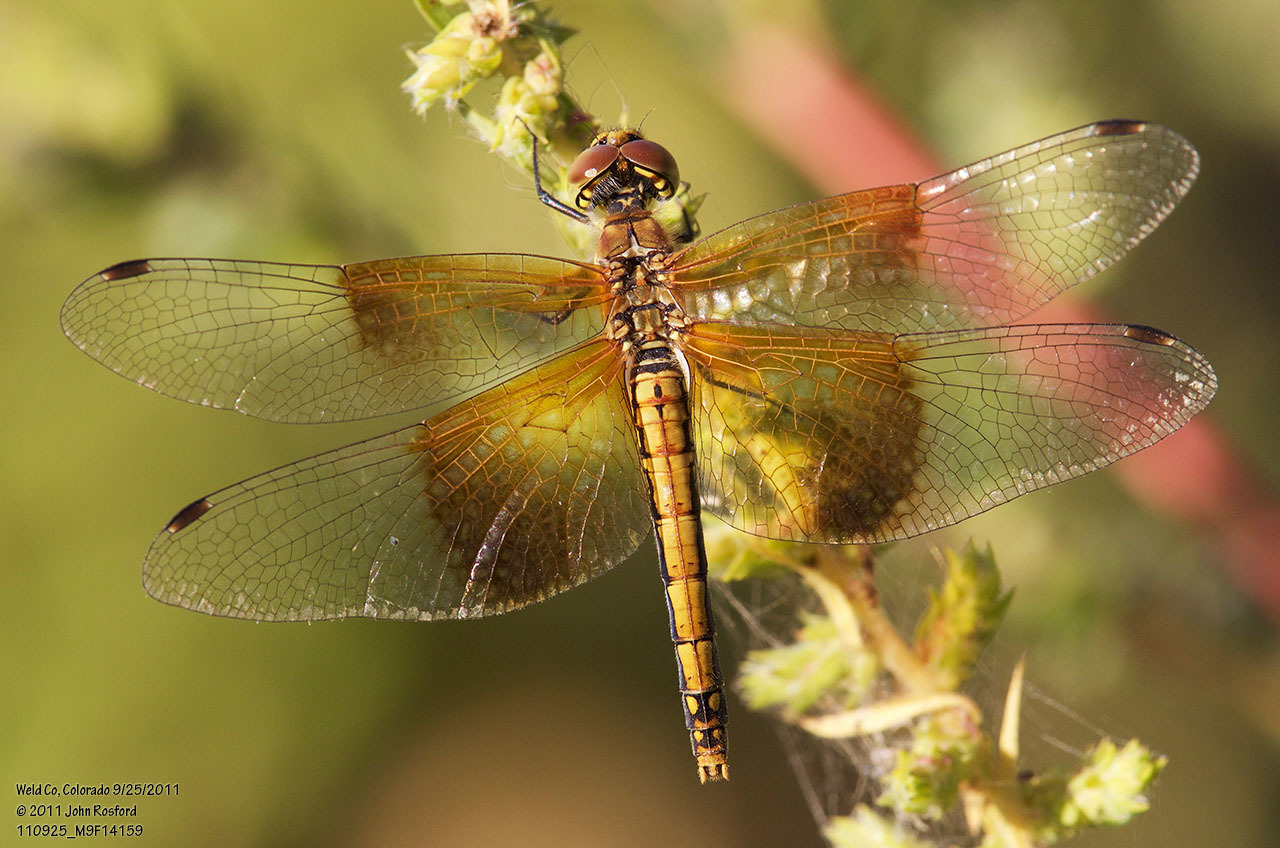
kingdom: Animalia
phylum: Arthropoda
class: Insecta
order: Odonata
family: Libellulidae
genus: Sympetrum
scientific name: Sympetrum semicinctum
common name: Band-winged meadowhawk
